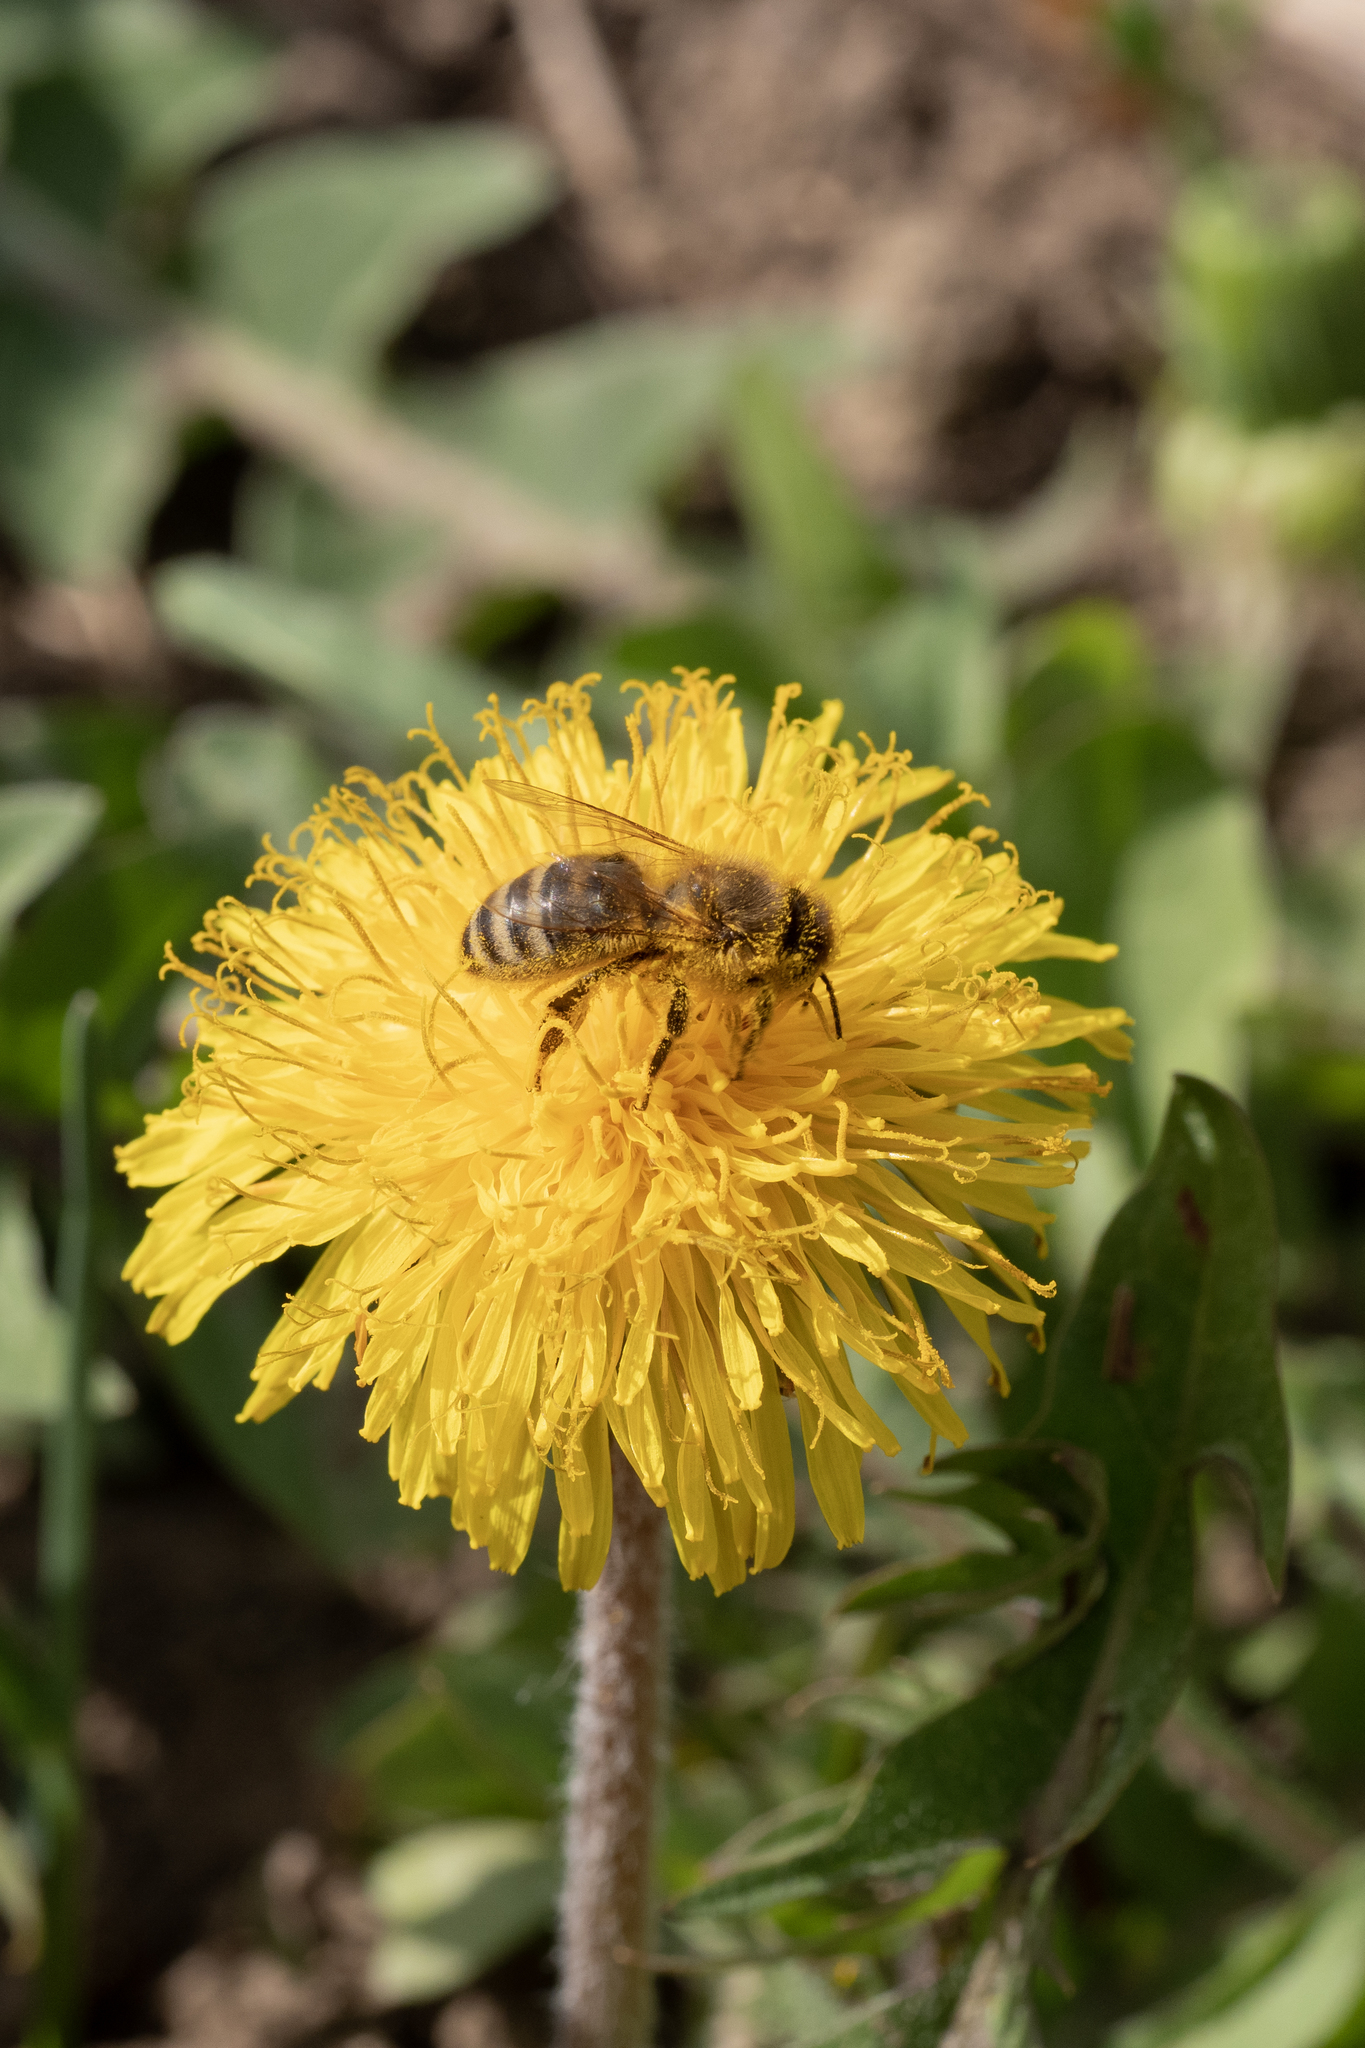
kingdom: Animalia
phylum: Arthropoda
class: Insecta
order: Hymenoptera
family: Apidae
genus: Apis
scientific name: Apis mellifera
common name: Honey bee
